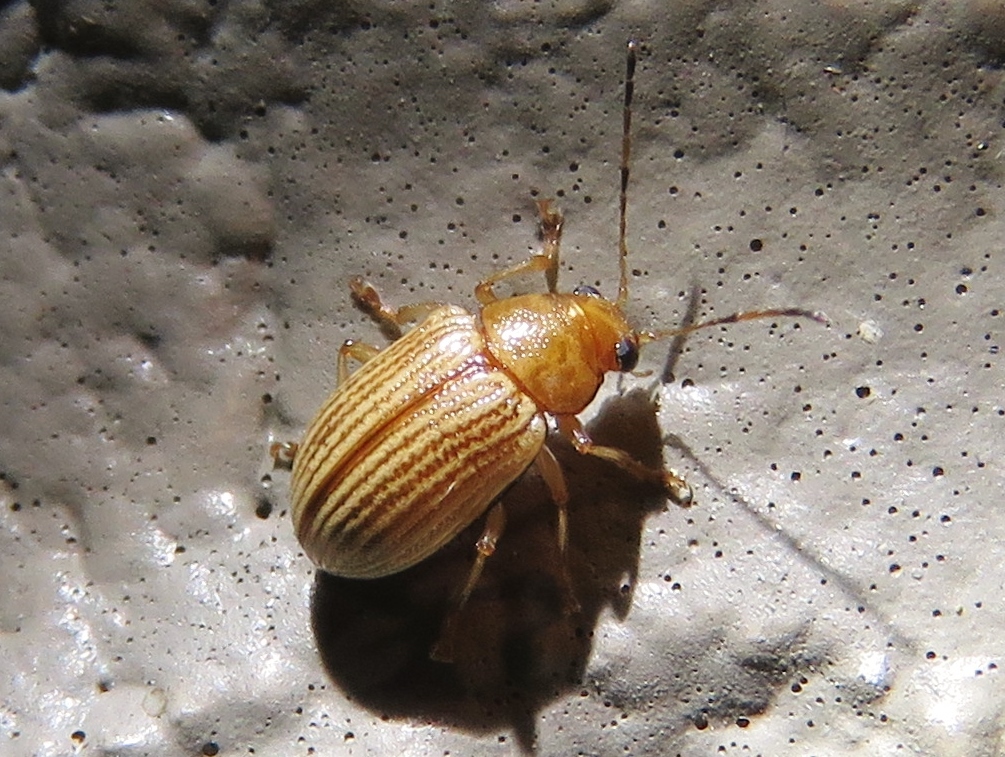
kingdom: Animalia
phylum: Arthropoda
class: Insecta
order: Coleoptera
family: Chrysomelidae
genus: Colaspis
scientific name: Colaspis brunnea
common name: Grape colaspis
